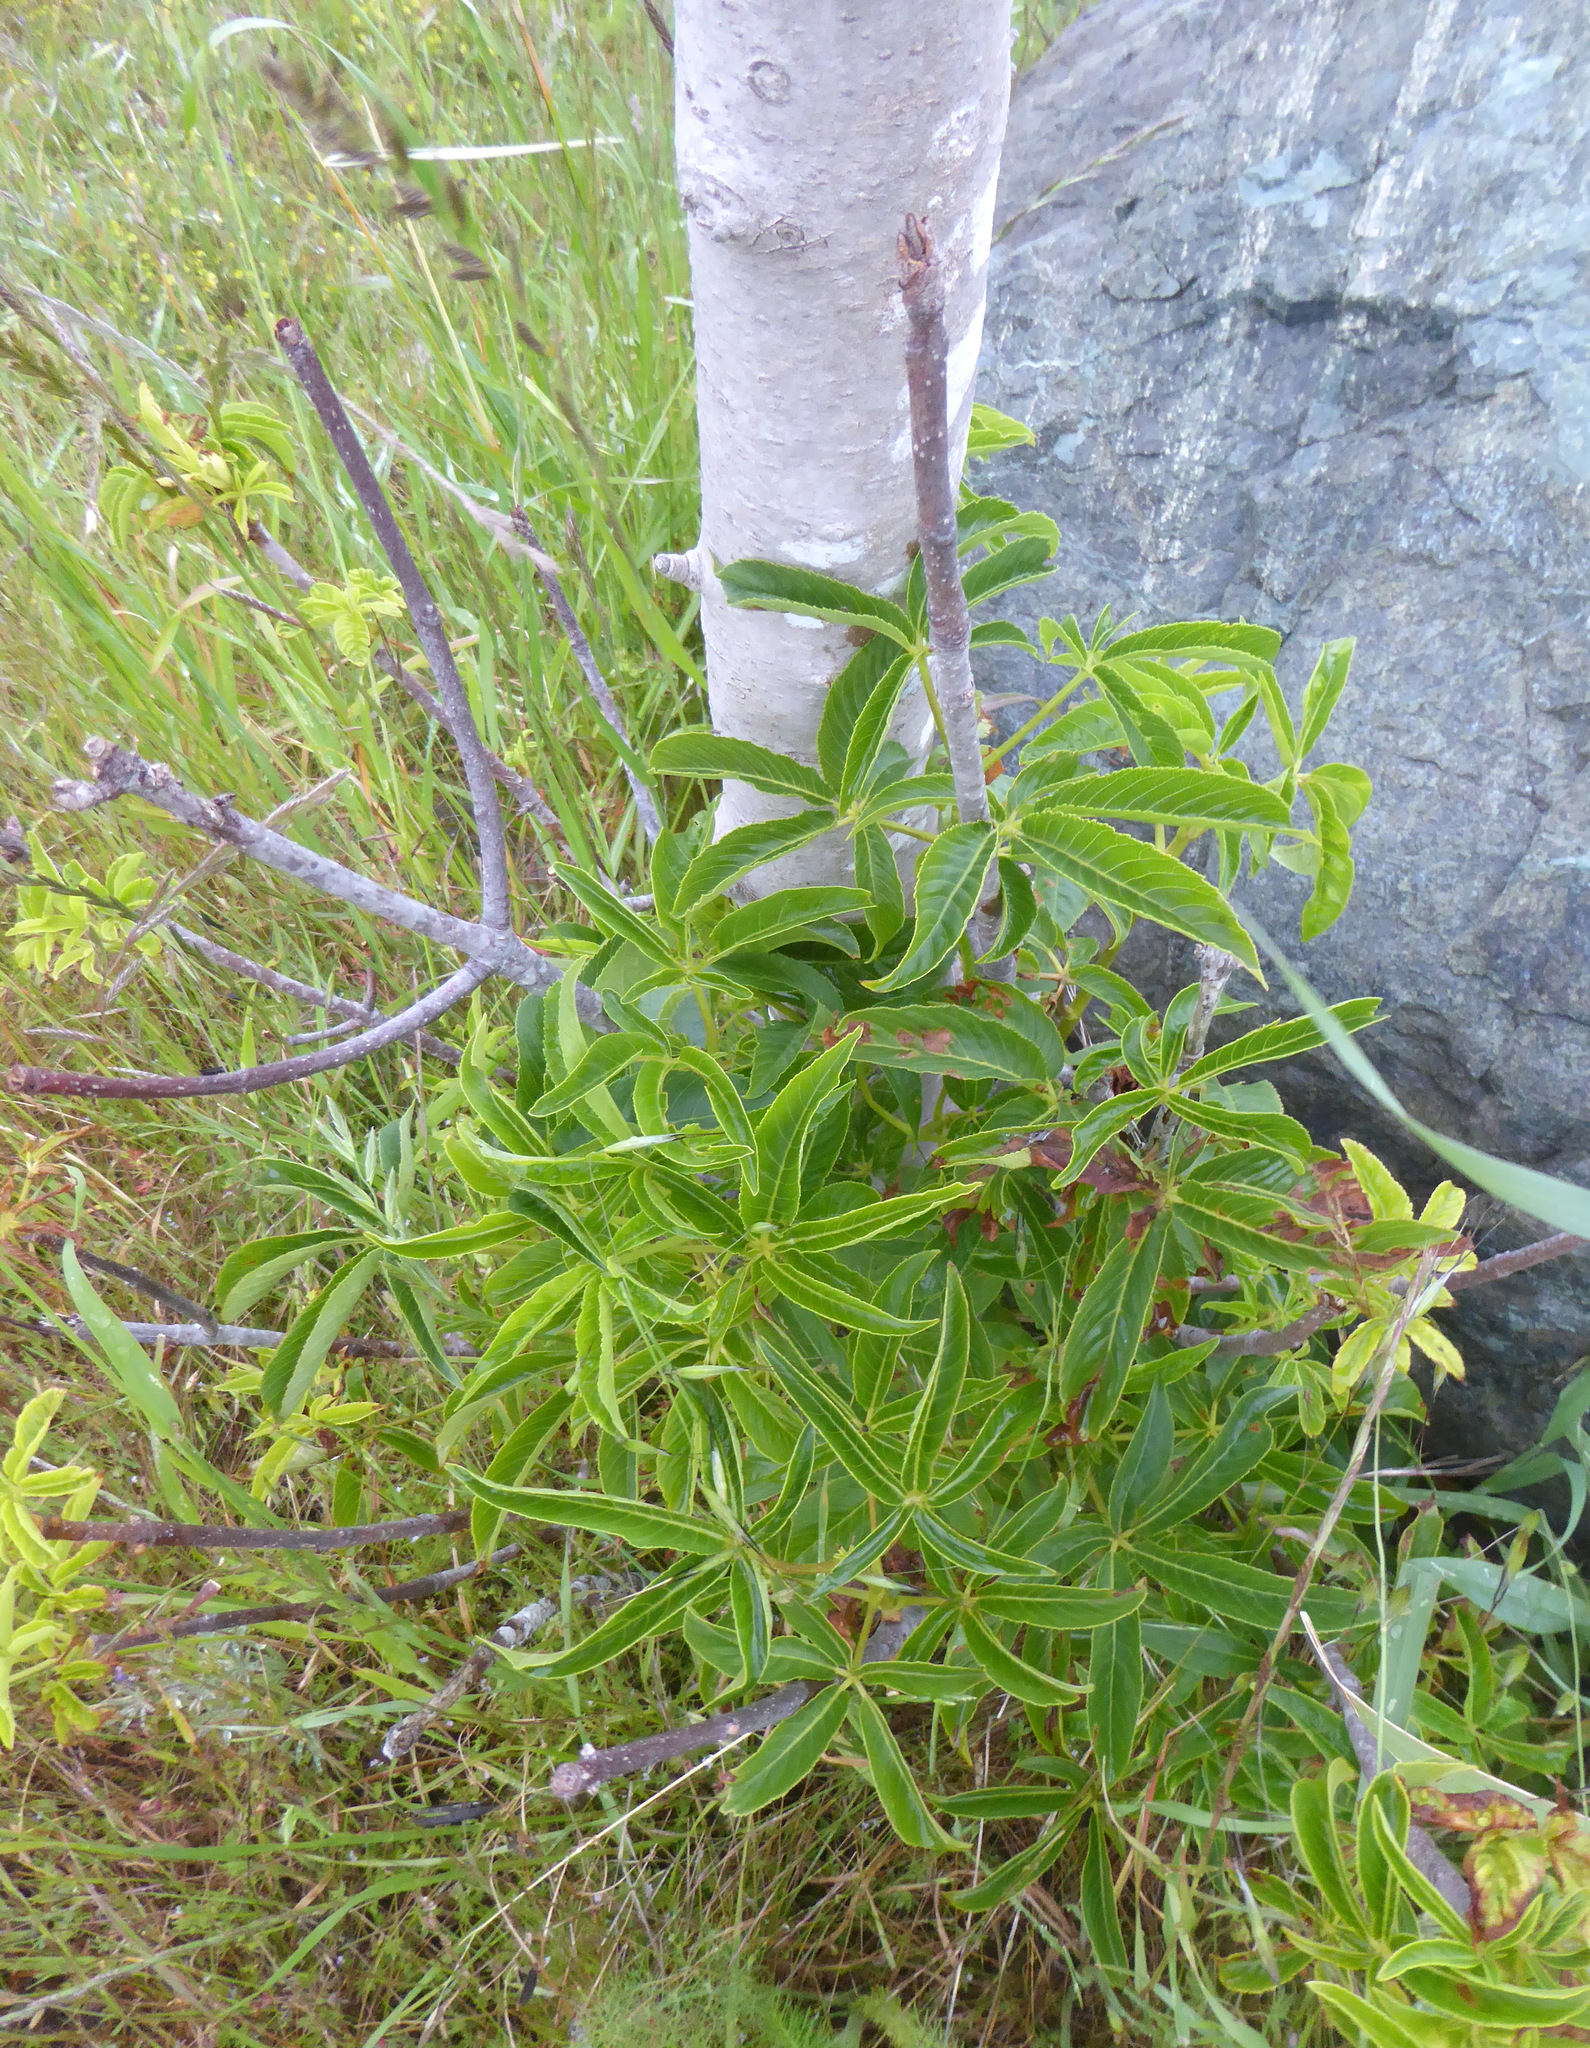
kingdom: Plantae
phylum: Tracheophyta
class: Magnoliopsida
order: Sapindales
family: Sapindaceae
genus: Aesculus
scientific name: Aesculus californica
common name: California buckeye
